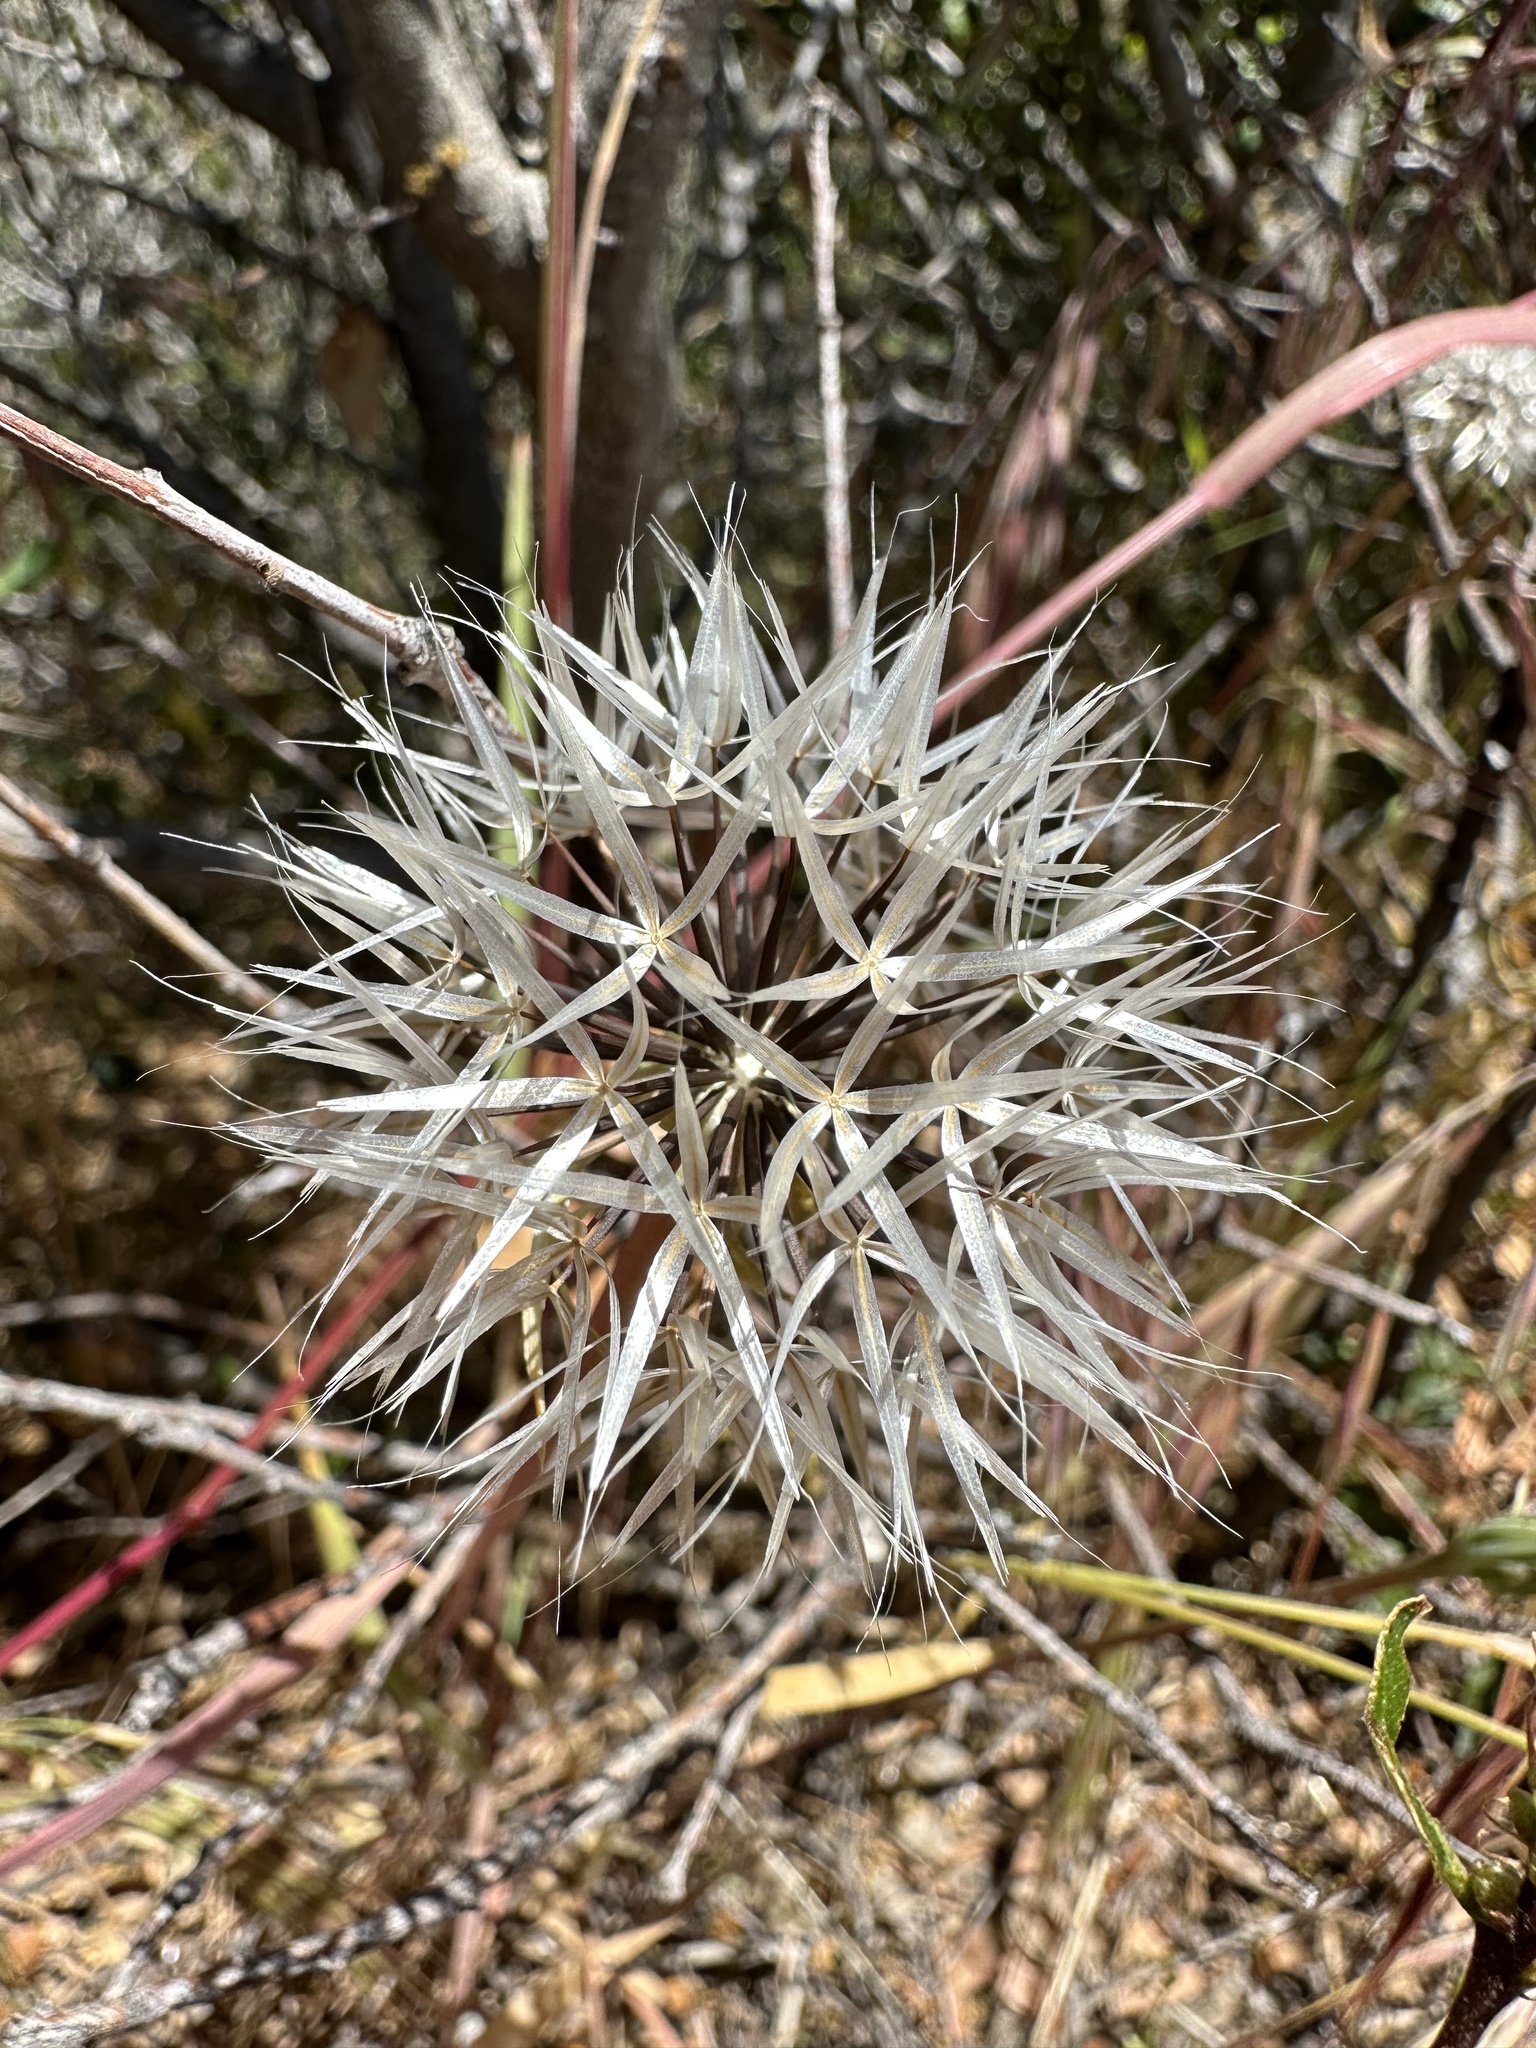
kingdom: Plantae
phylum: Tracheophyta
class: Magnoliopsida
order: Asterales
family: Asteraceae
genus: Microseris
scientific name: Microseris lindleyi
